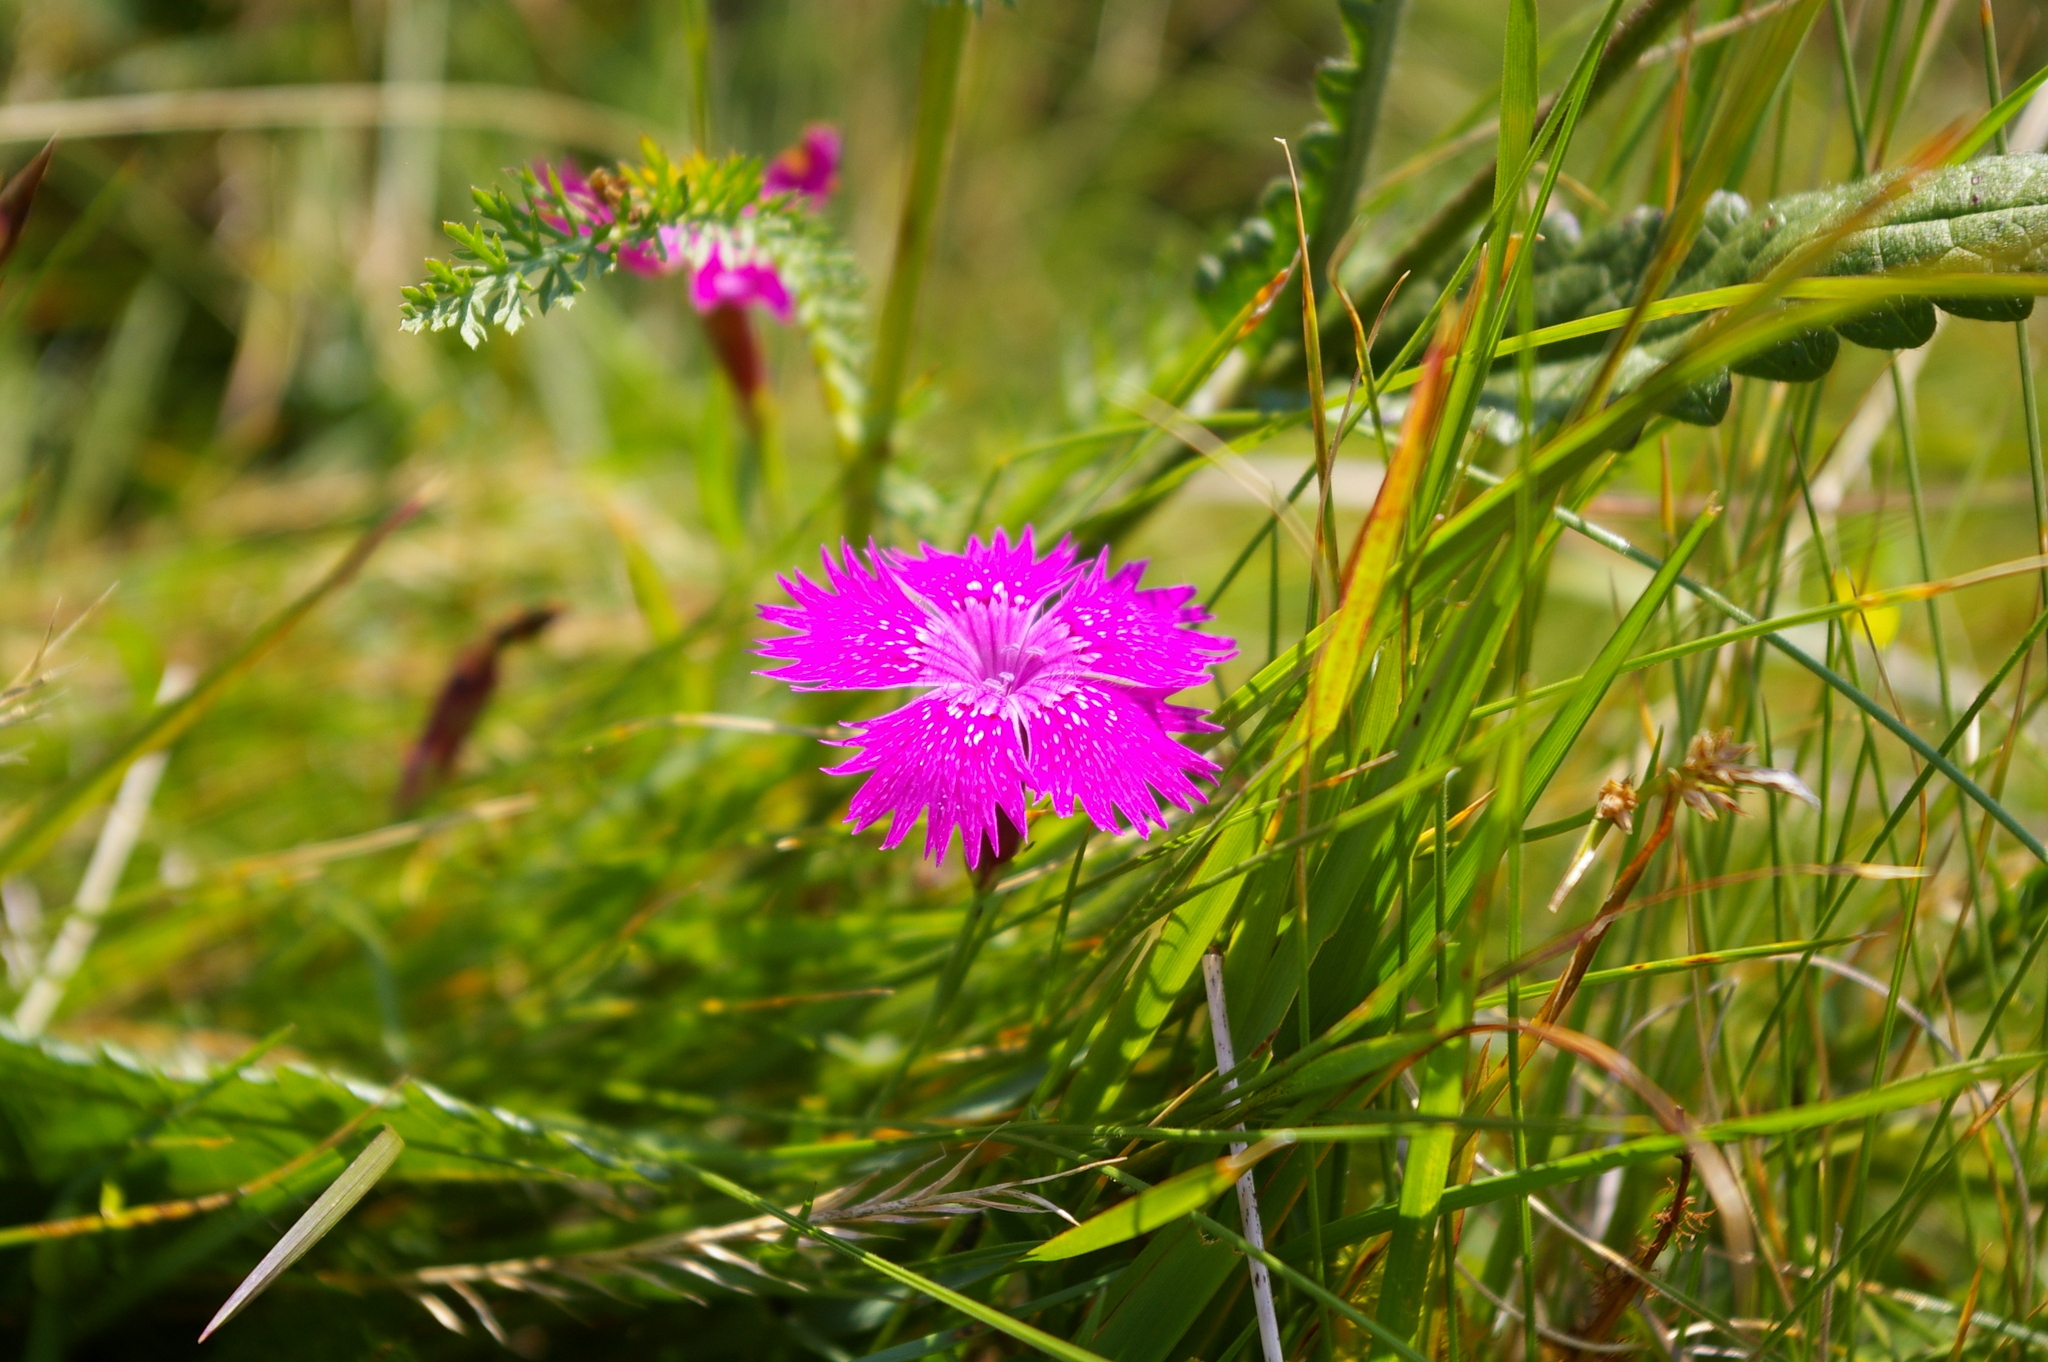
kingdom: Plantae
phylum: Tracheophyta
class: Magnoliopsida
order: Caryophyllales
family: Caryophyllaceae
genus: Dianthus
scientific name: Dianthus seguieri
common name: Ragged pink
